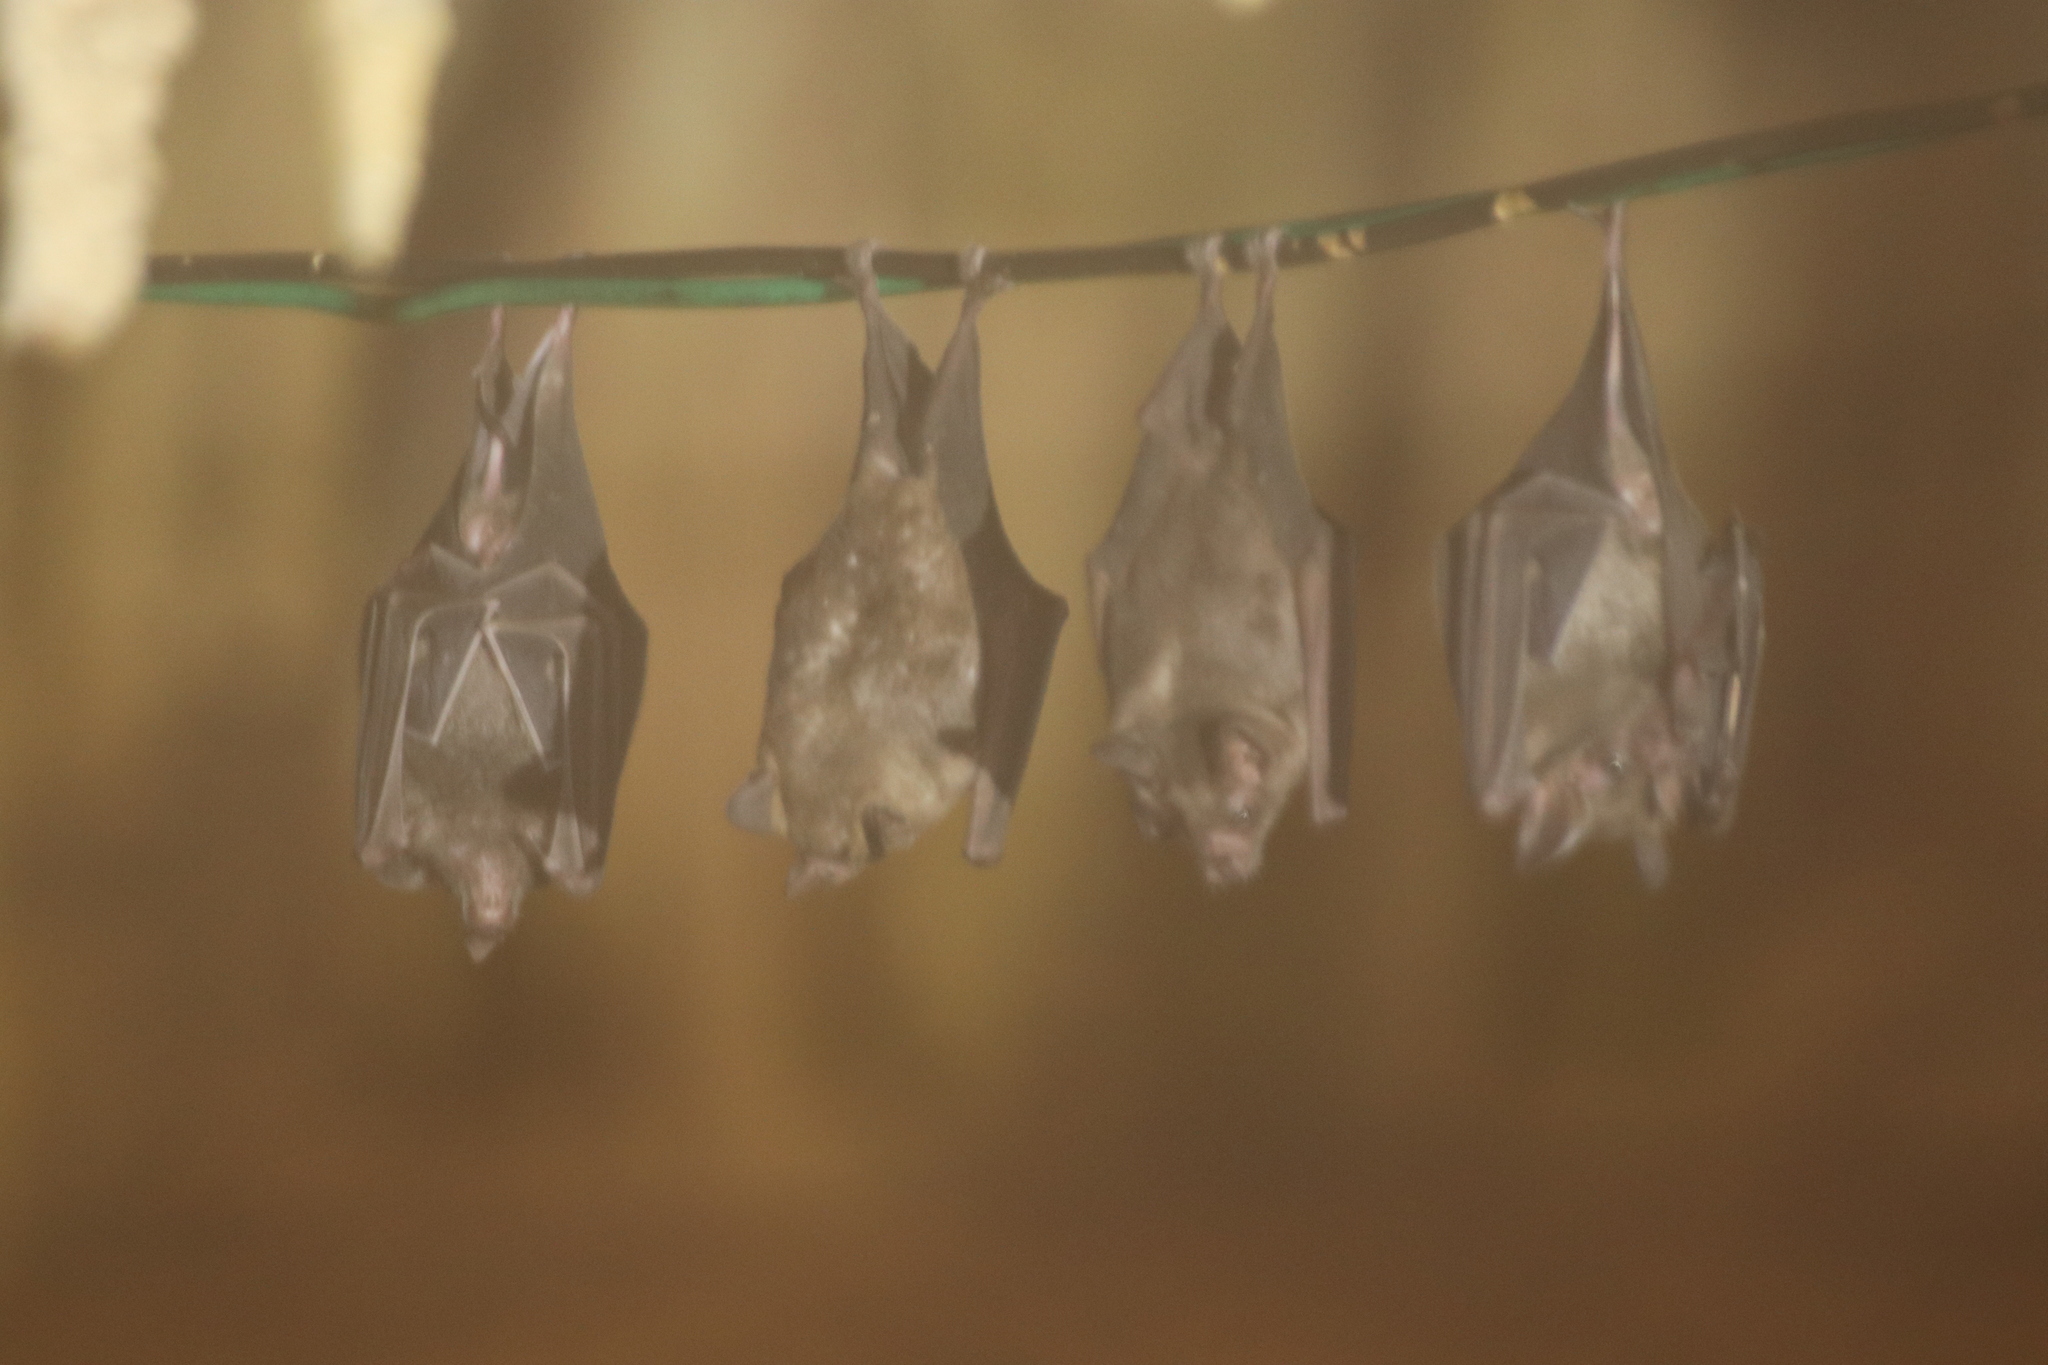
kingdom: Animalia
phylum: Chordata
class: Mammalia
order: Chiroptera
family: Phyllostomidae
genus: Carollia
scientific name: Carollia perspicillata
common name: Seba's short-tailed bat
